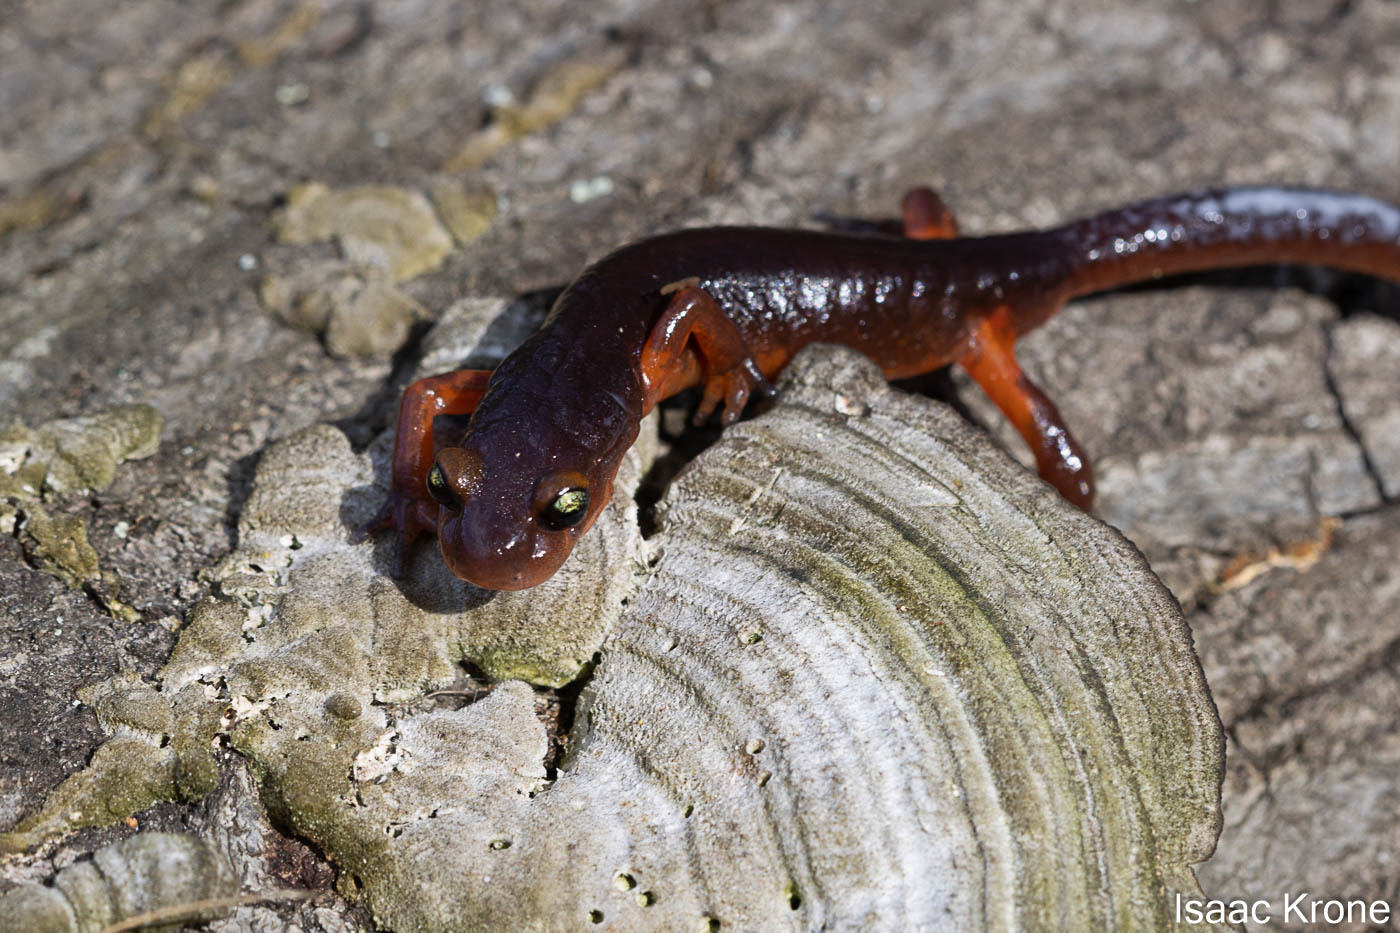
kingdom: Animalia
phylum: Chordata
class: Amphibia
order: Caudata
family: Plethodontidae
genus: Ensatina
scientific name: Ensatina eschscholtzii
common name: Ensatina
